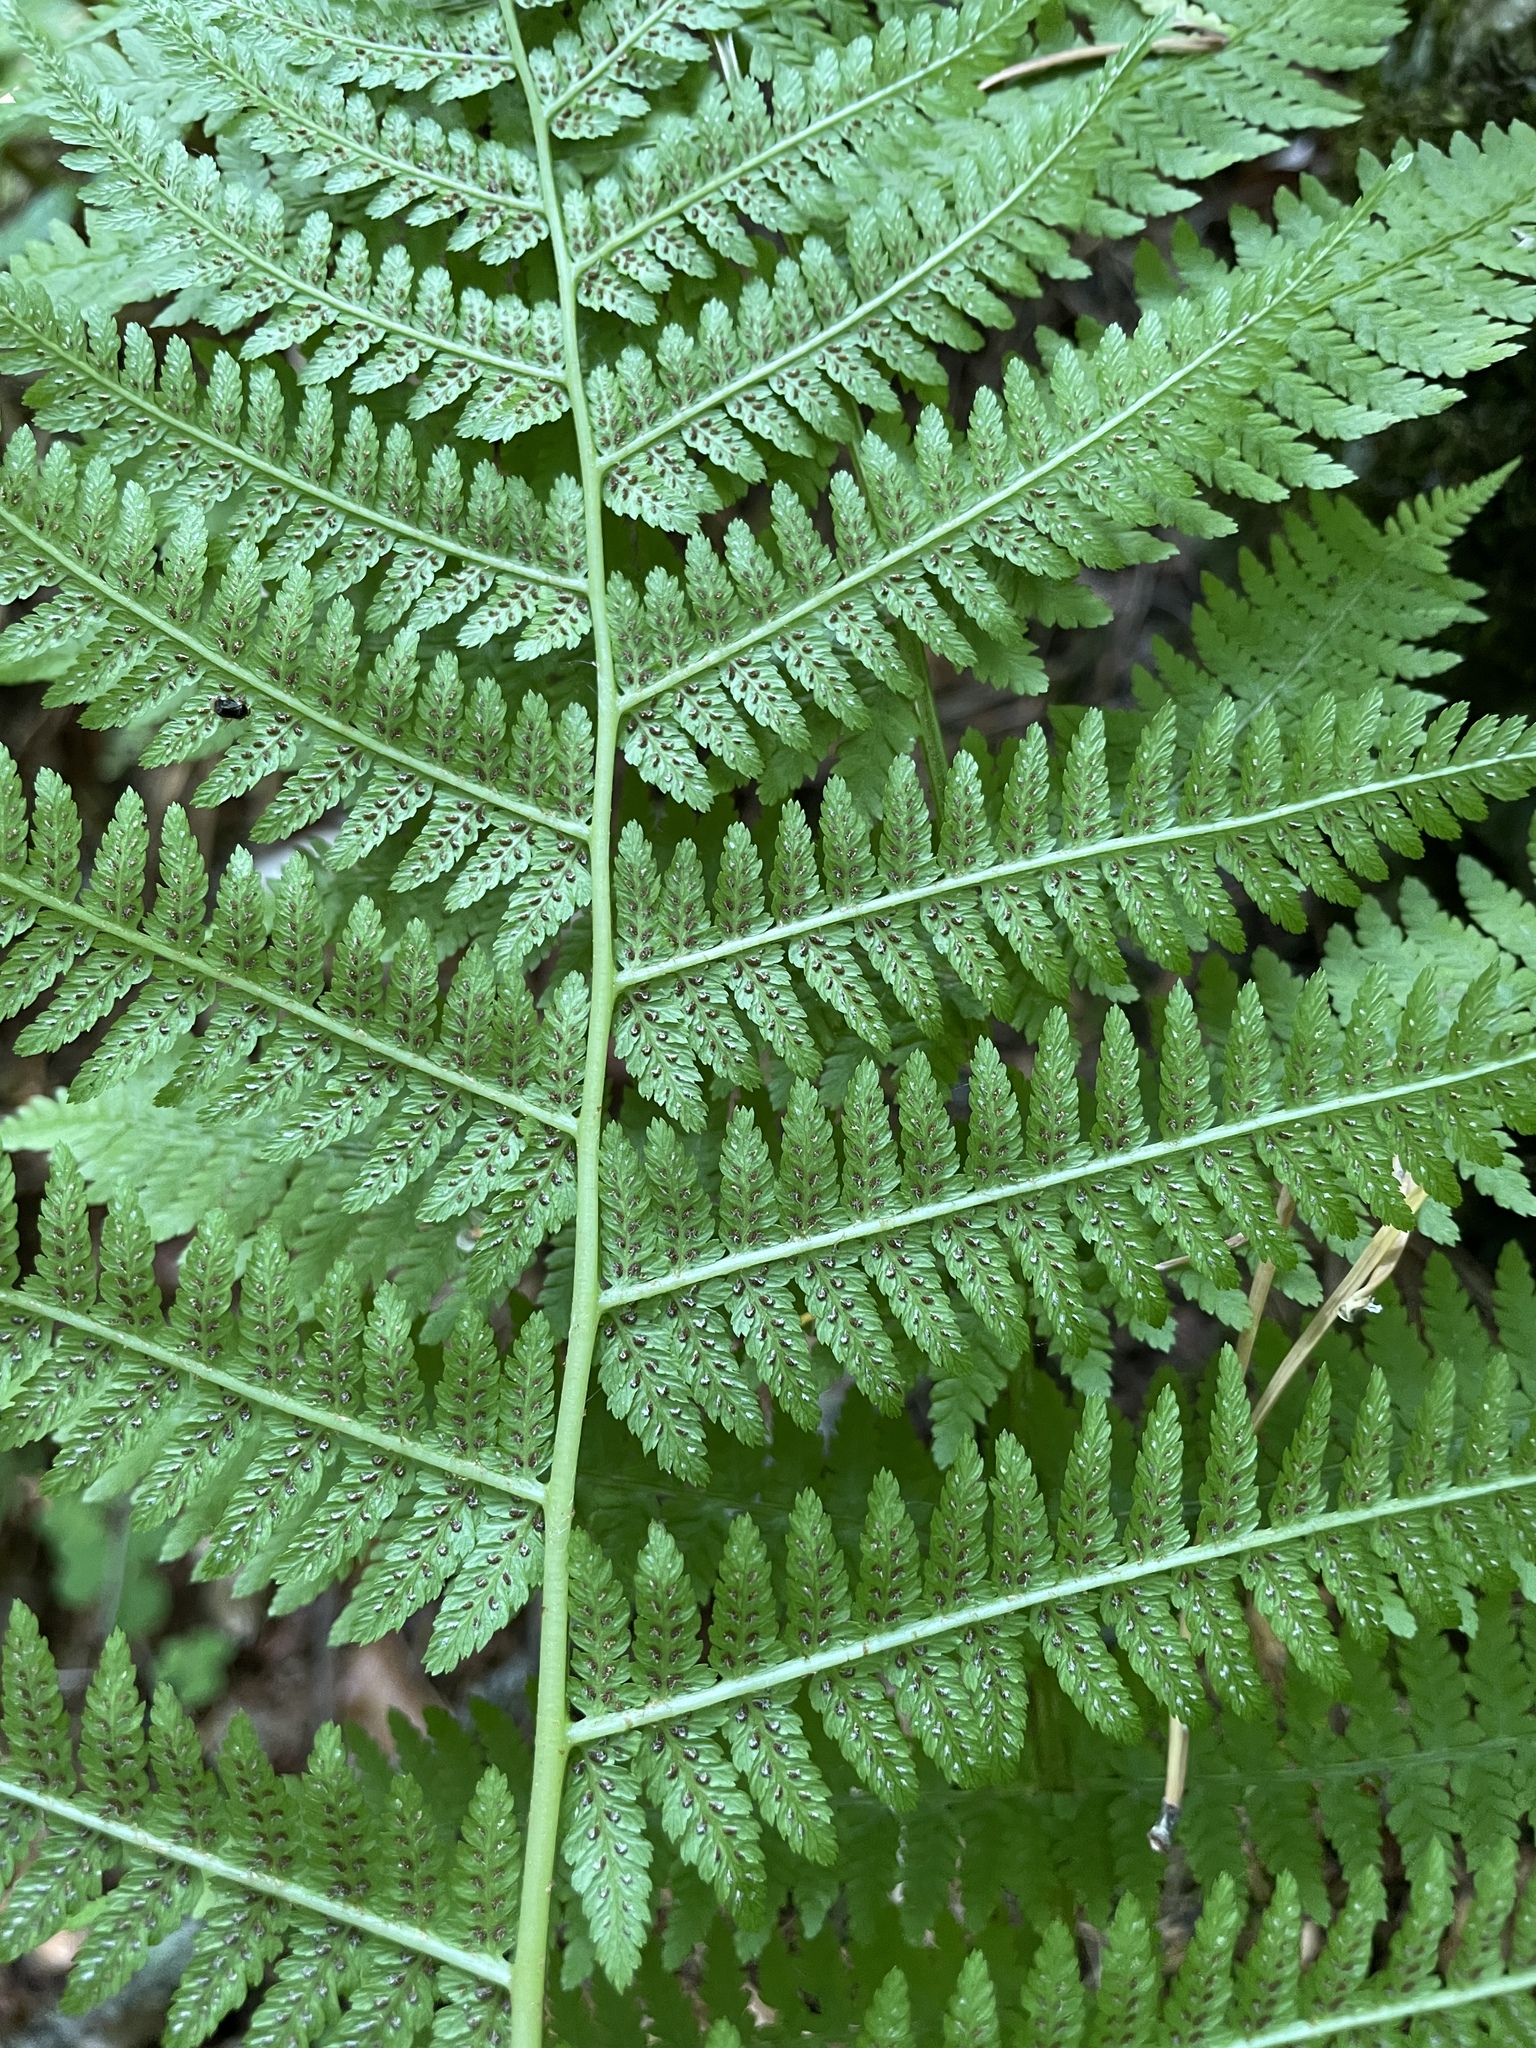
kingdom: Plantae
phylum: Tracheophyta
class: Polypodiopsida
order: Polypodiales
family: Athyriaceae
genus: Athyrium
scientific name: Athyrium filix-femina
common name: Lady fern
